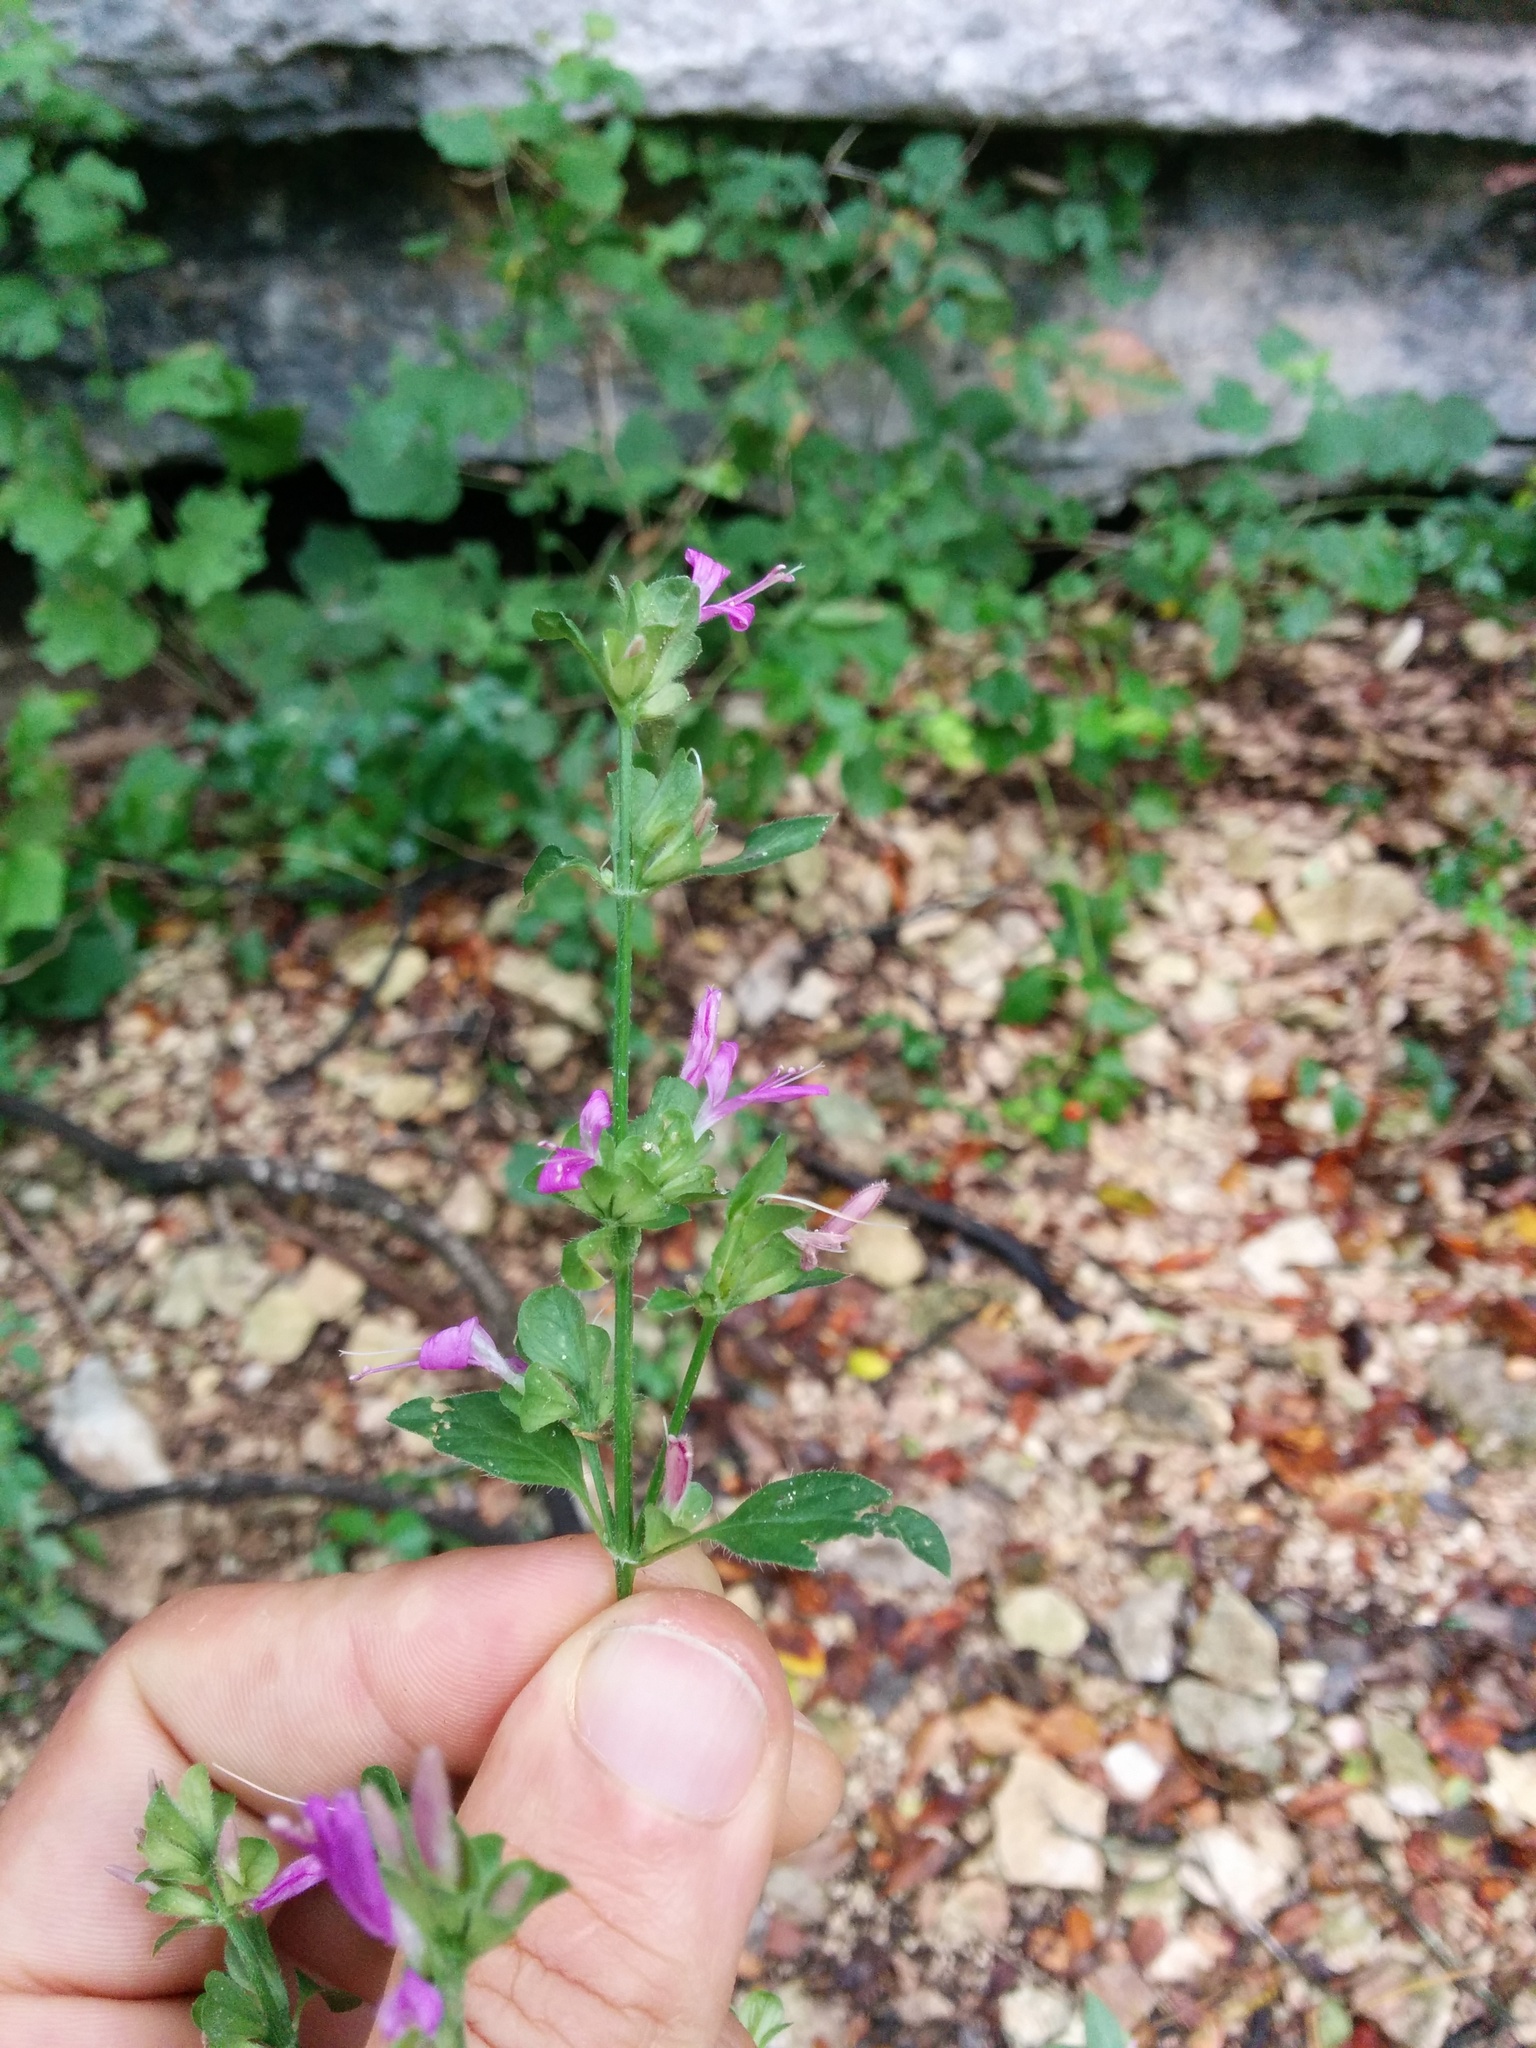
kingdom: Plantae
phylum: Tracheophyta
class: Magnoliopsida
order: Lamiales
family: Acanthaceae
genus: Dicliptera
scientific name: Dicliptera brachiata
